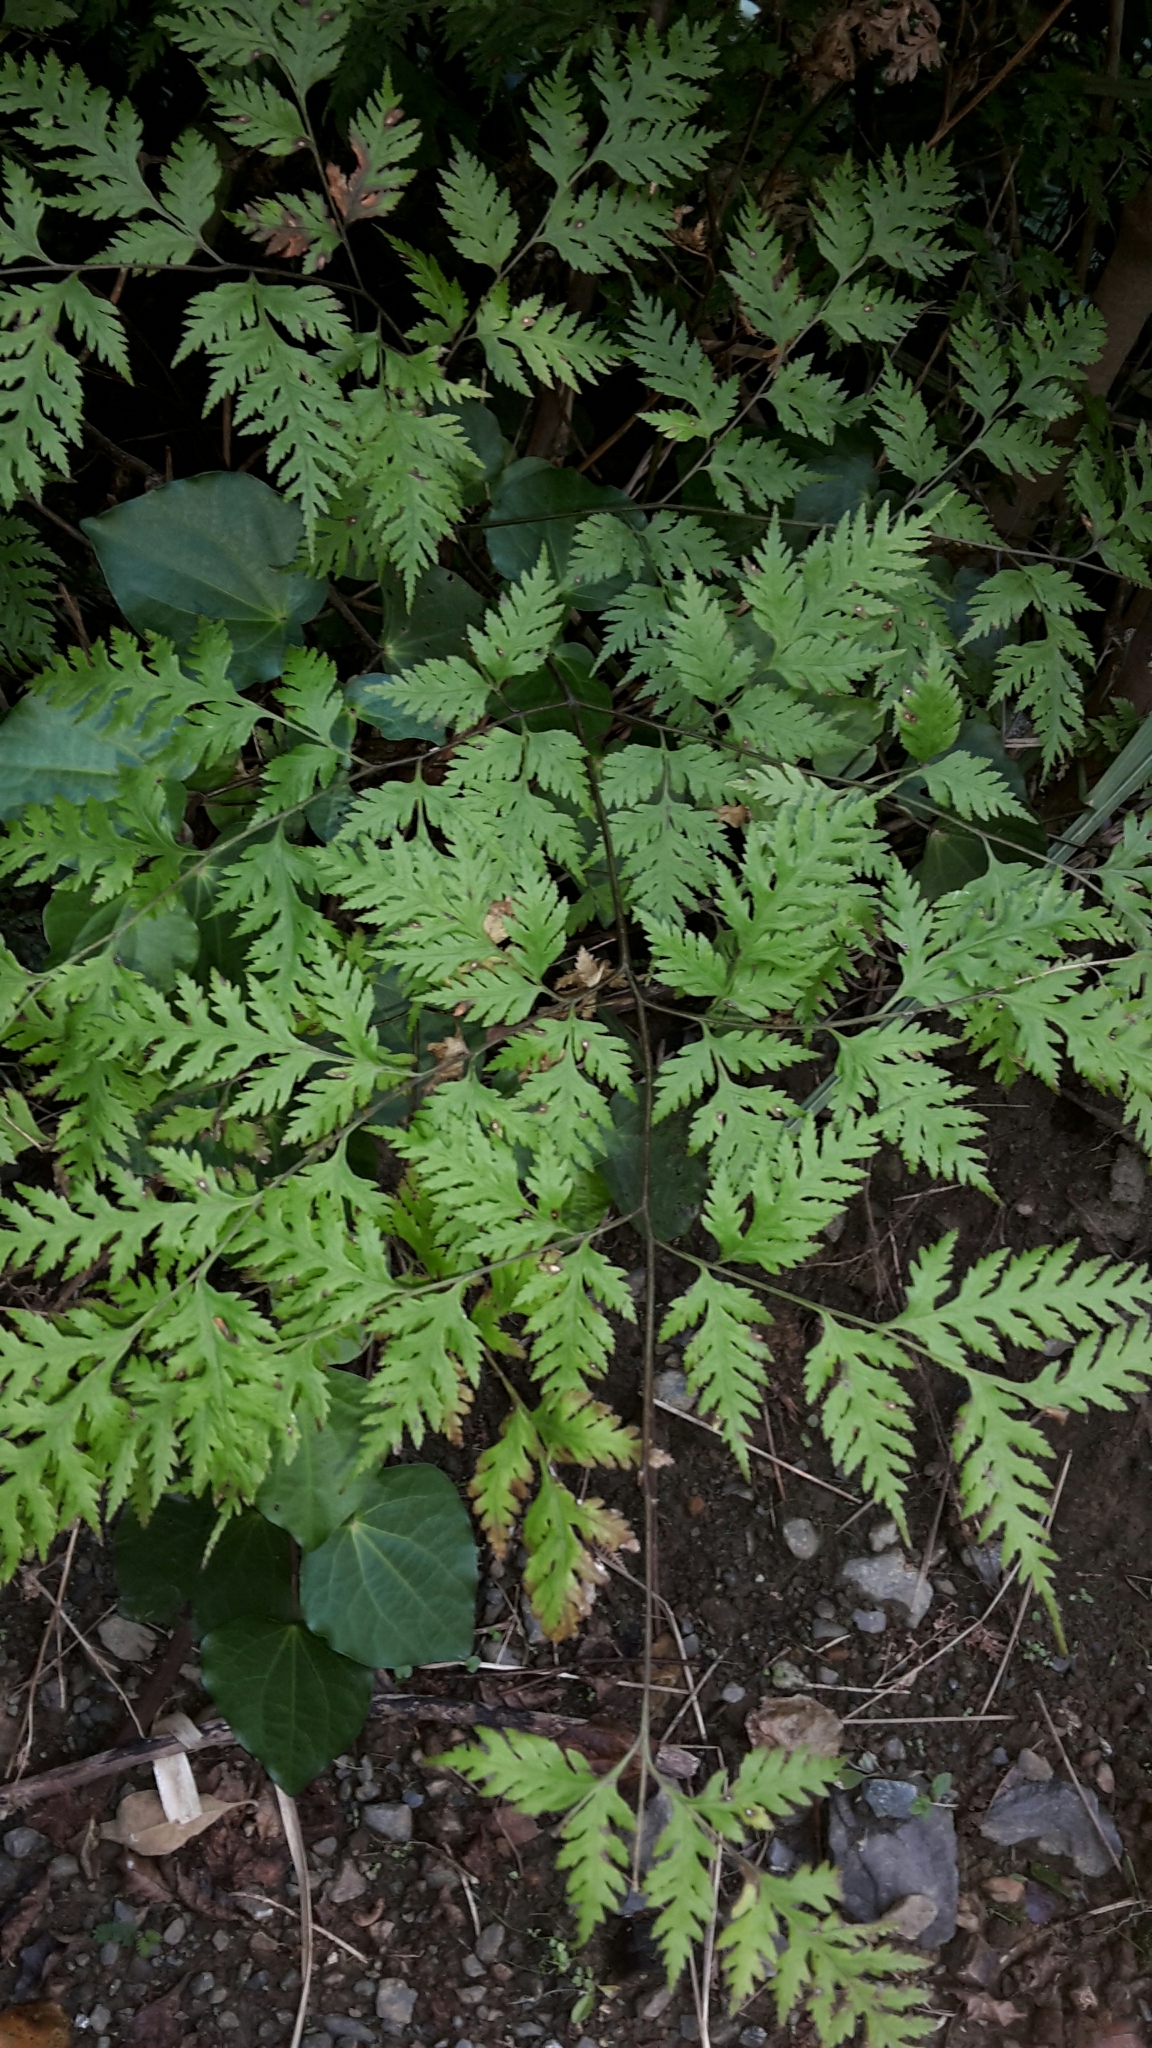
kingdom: Plantae
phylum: Tracheophyta
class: Polypodiopsida
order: Polypodiales
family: Pteridaceae
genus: Pteris
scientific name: Pteris macilenta
